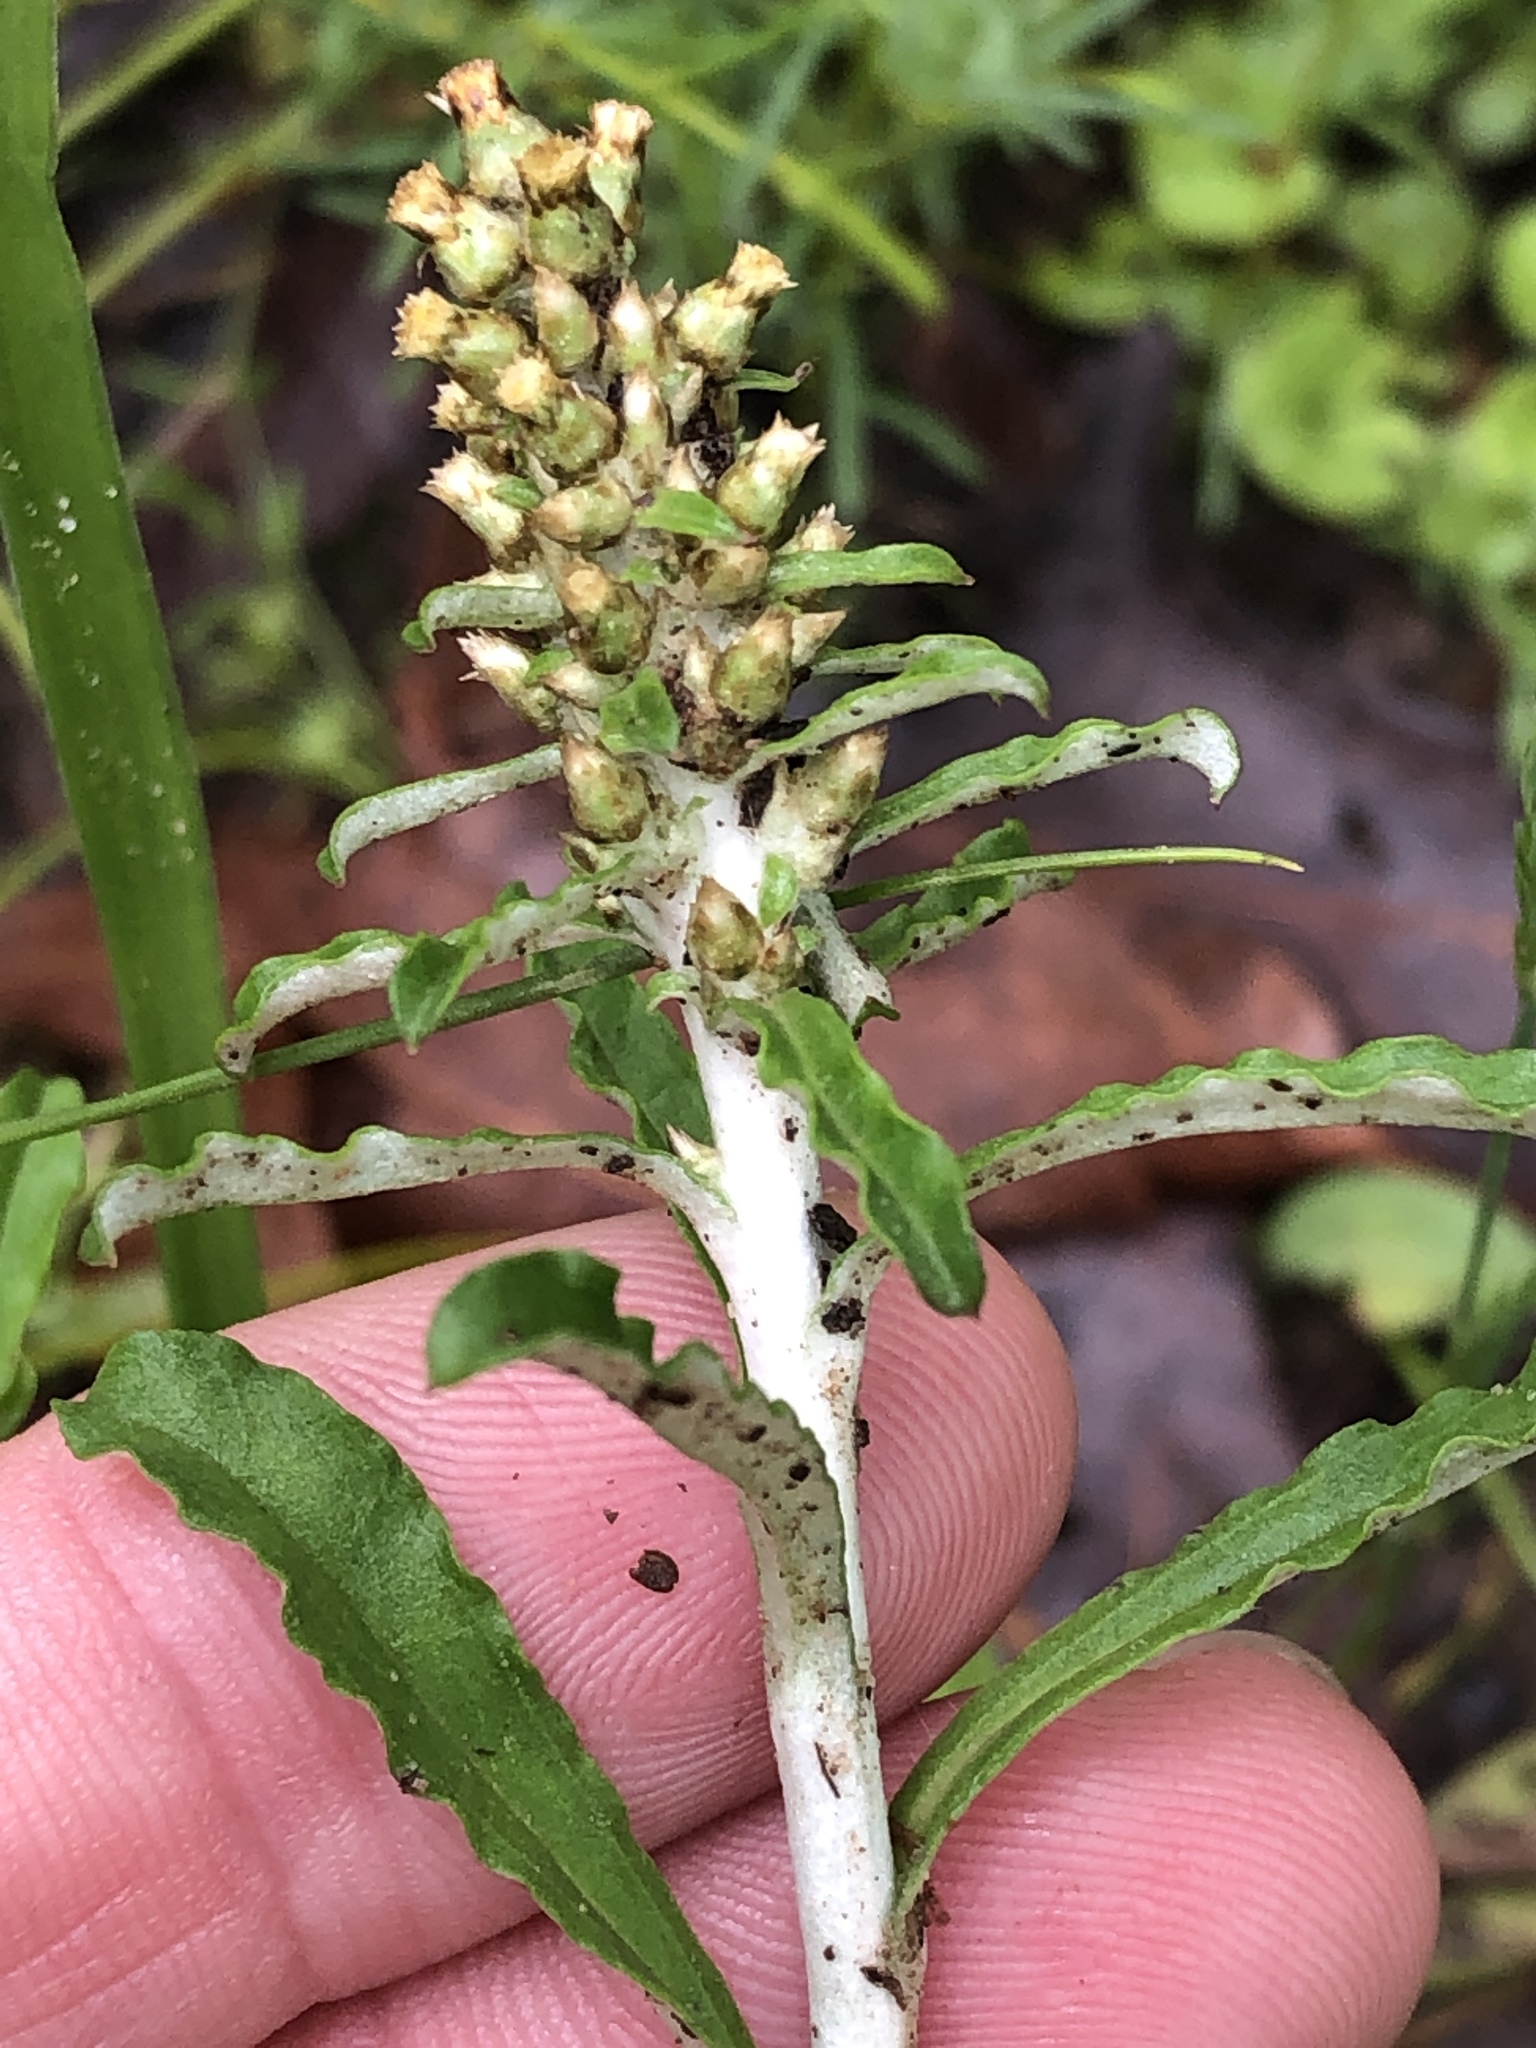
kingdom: Plantae
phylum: Tracheophyta
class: Magnoliopsida
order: Asterales
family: Asteraceae
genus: Gamochaeta
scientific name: Gamochaeta pensylvanica
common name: Pennsylvania everlasting
